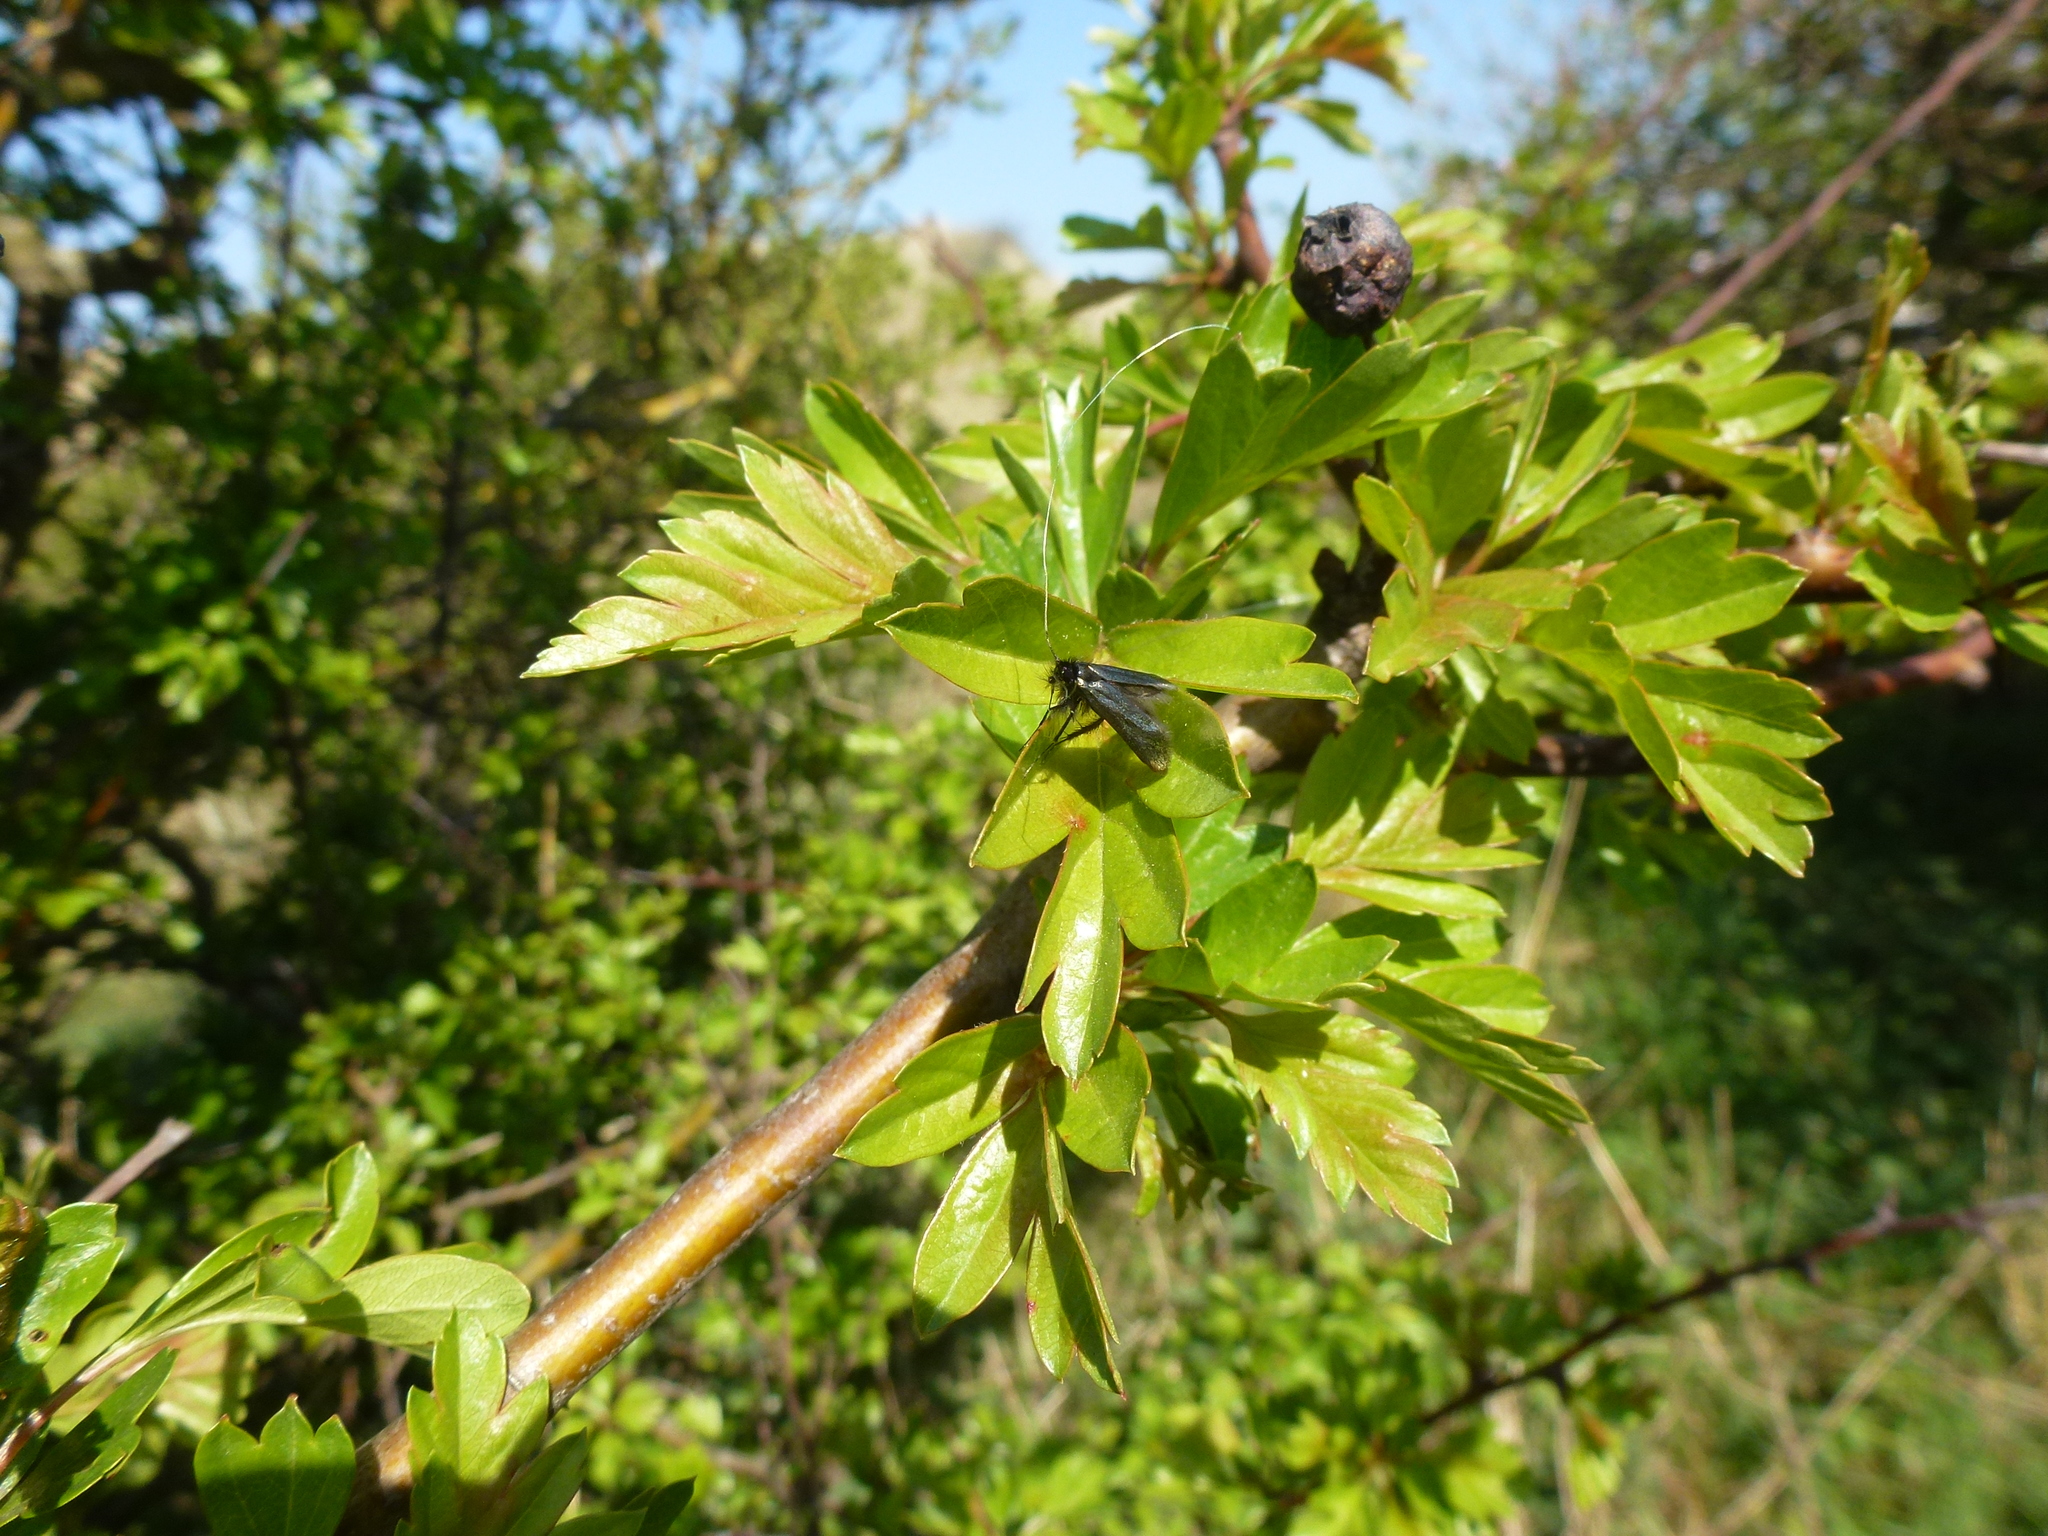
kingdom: Animalia
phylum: Arthropoda
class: Insecta
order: Lepidoptera
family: Adelidae
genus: Adela
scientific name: Adela viridella
